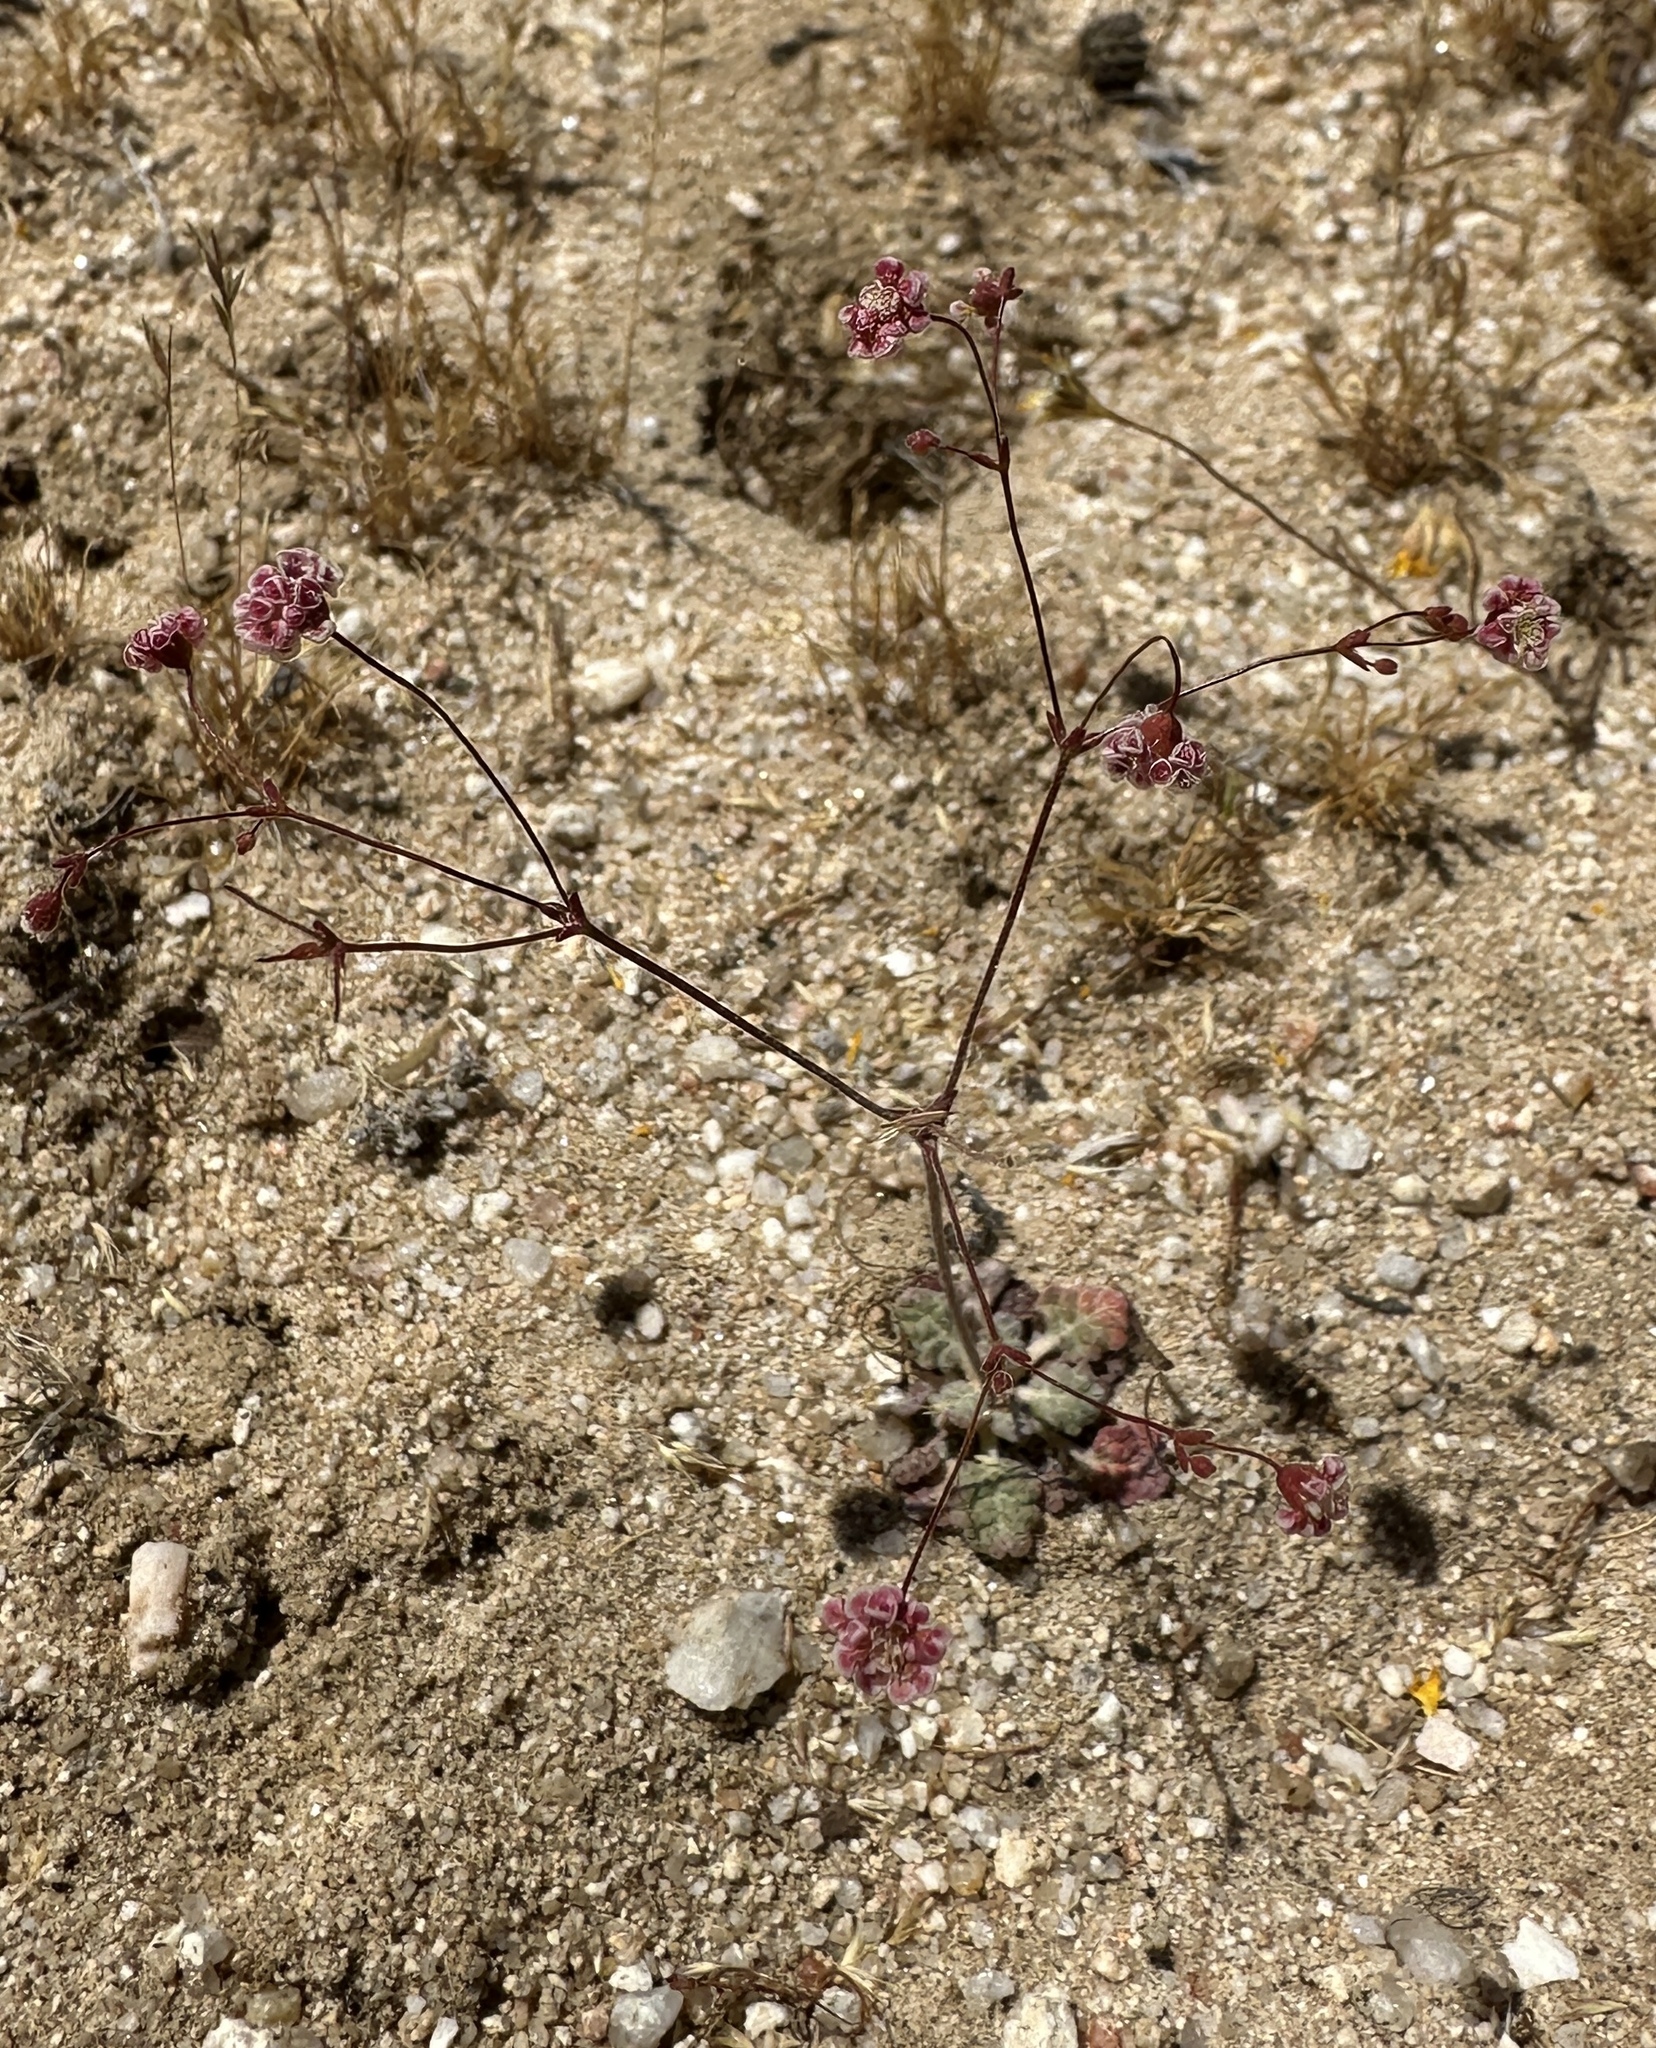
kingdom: Plantae
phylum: Tracheophyta
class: Magnoliopsida
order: Caryophyllales
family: Polygonaceae
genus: Eriogonum
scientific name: Eriogonum thurberi
